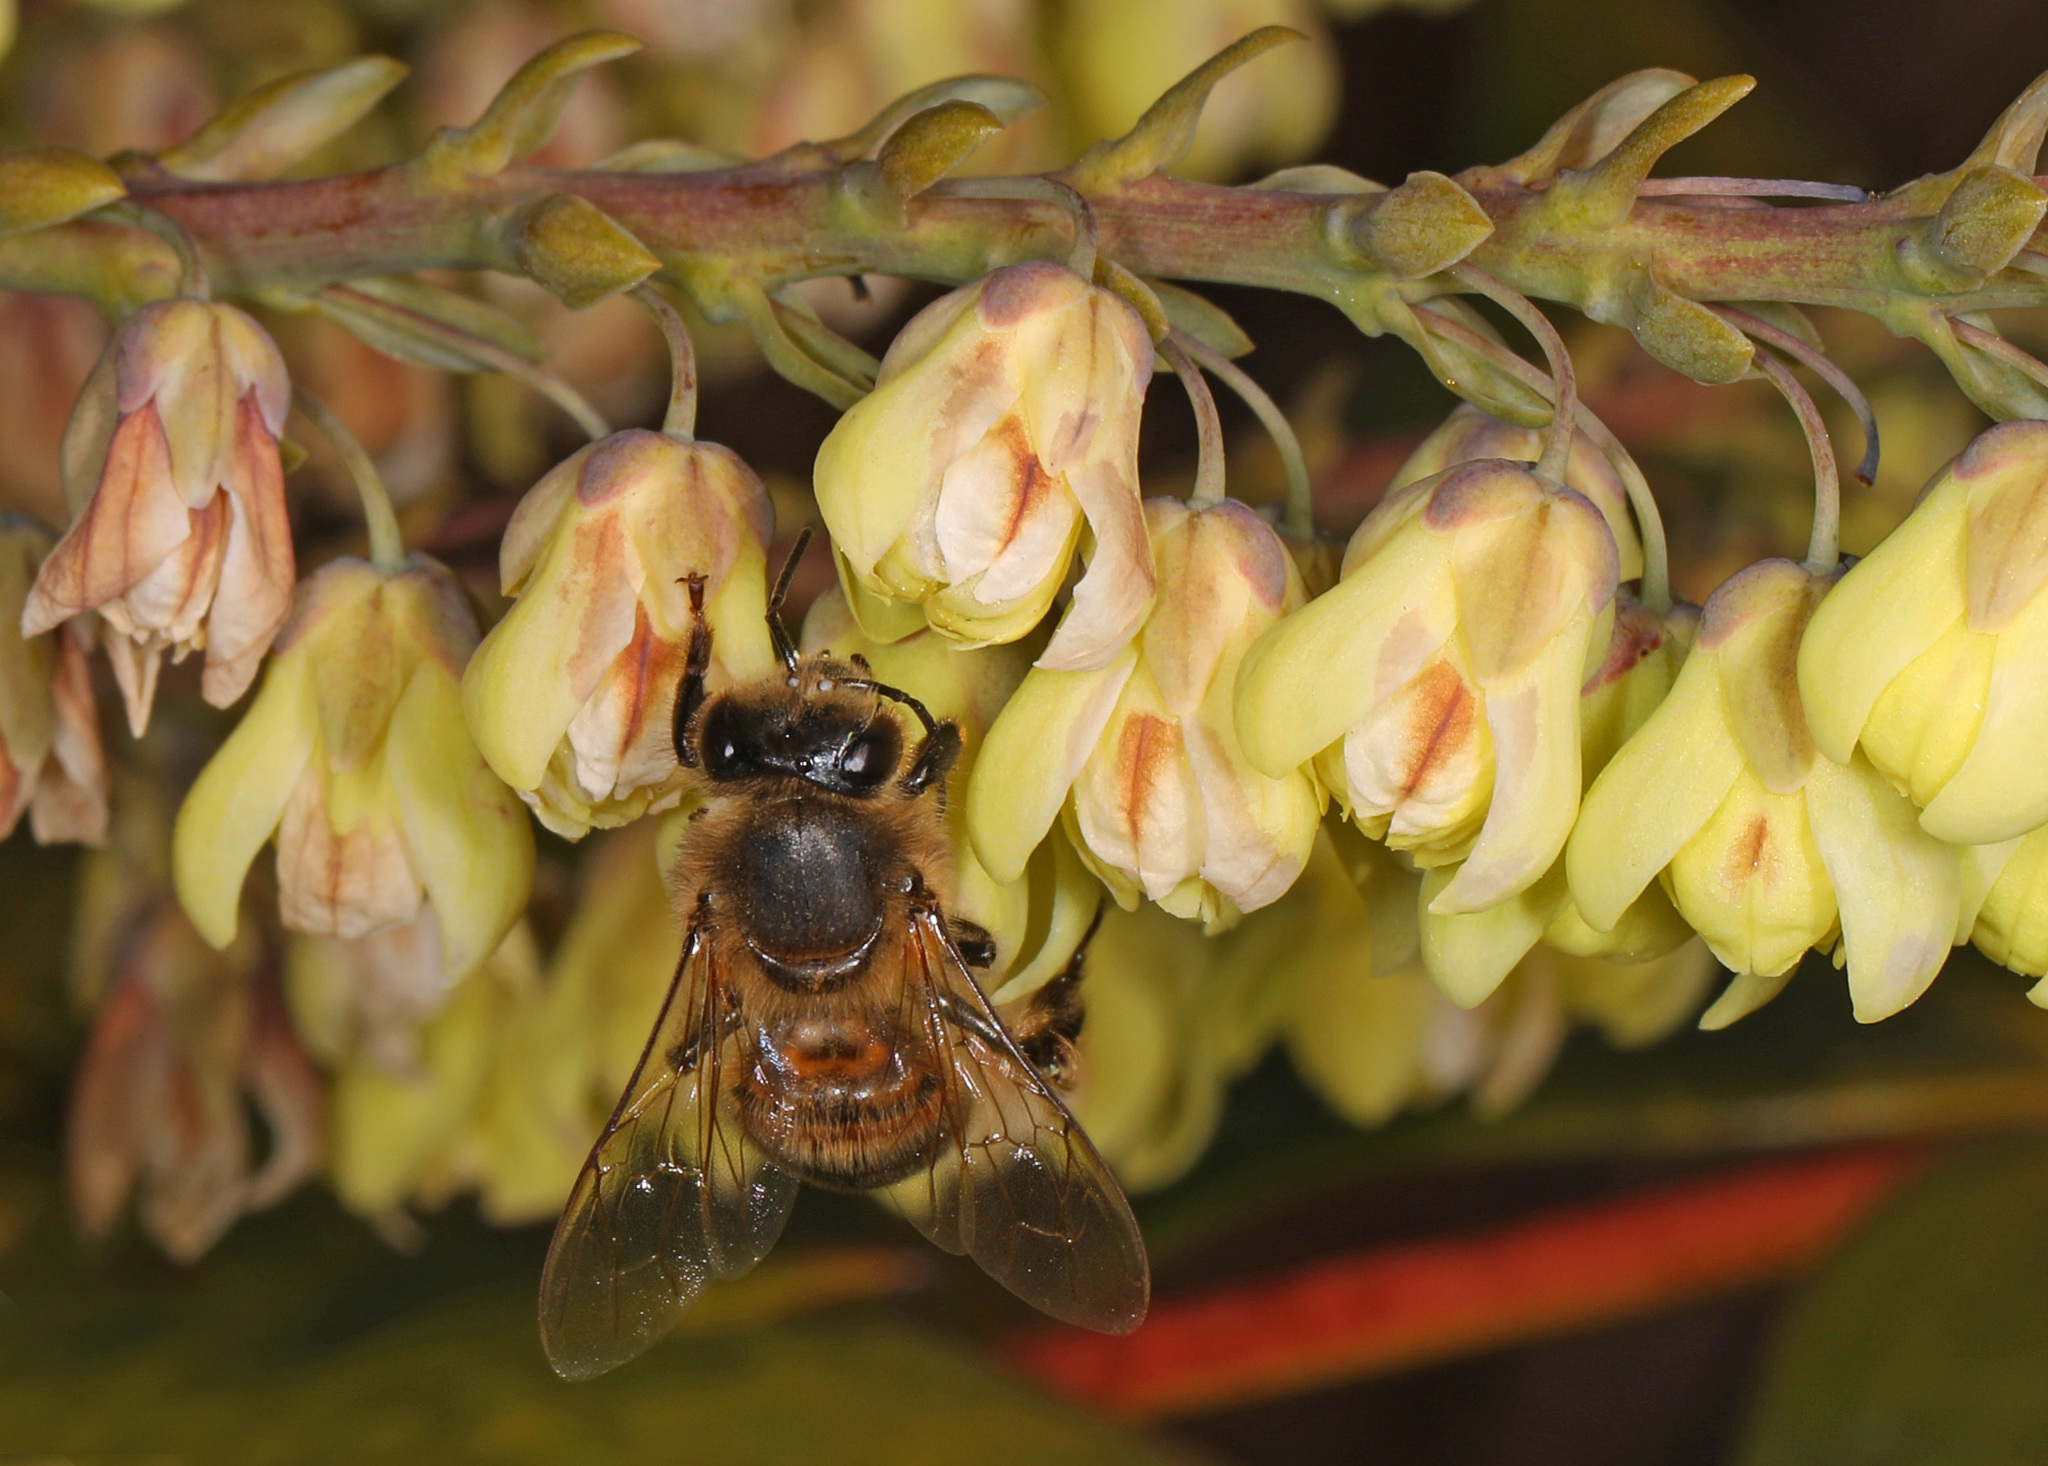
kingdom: Animalia
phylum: Arthropoda
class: Insecta
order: Hymenoptera
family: Apidae
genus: Apis
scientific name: Apis mellifera
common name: Honey bee
